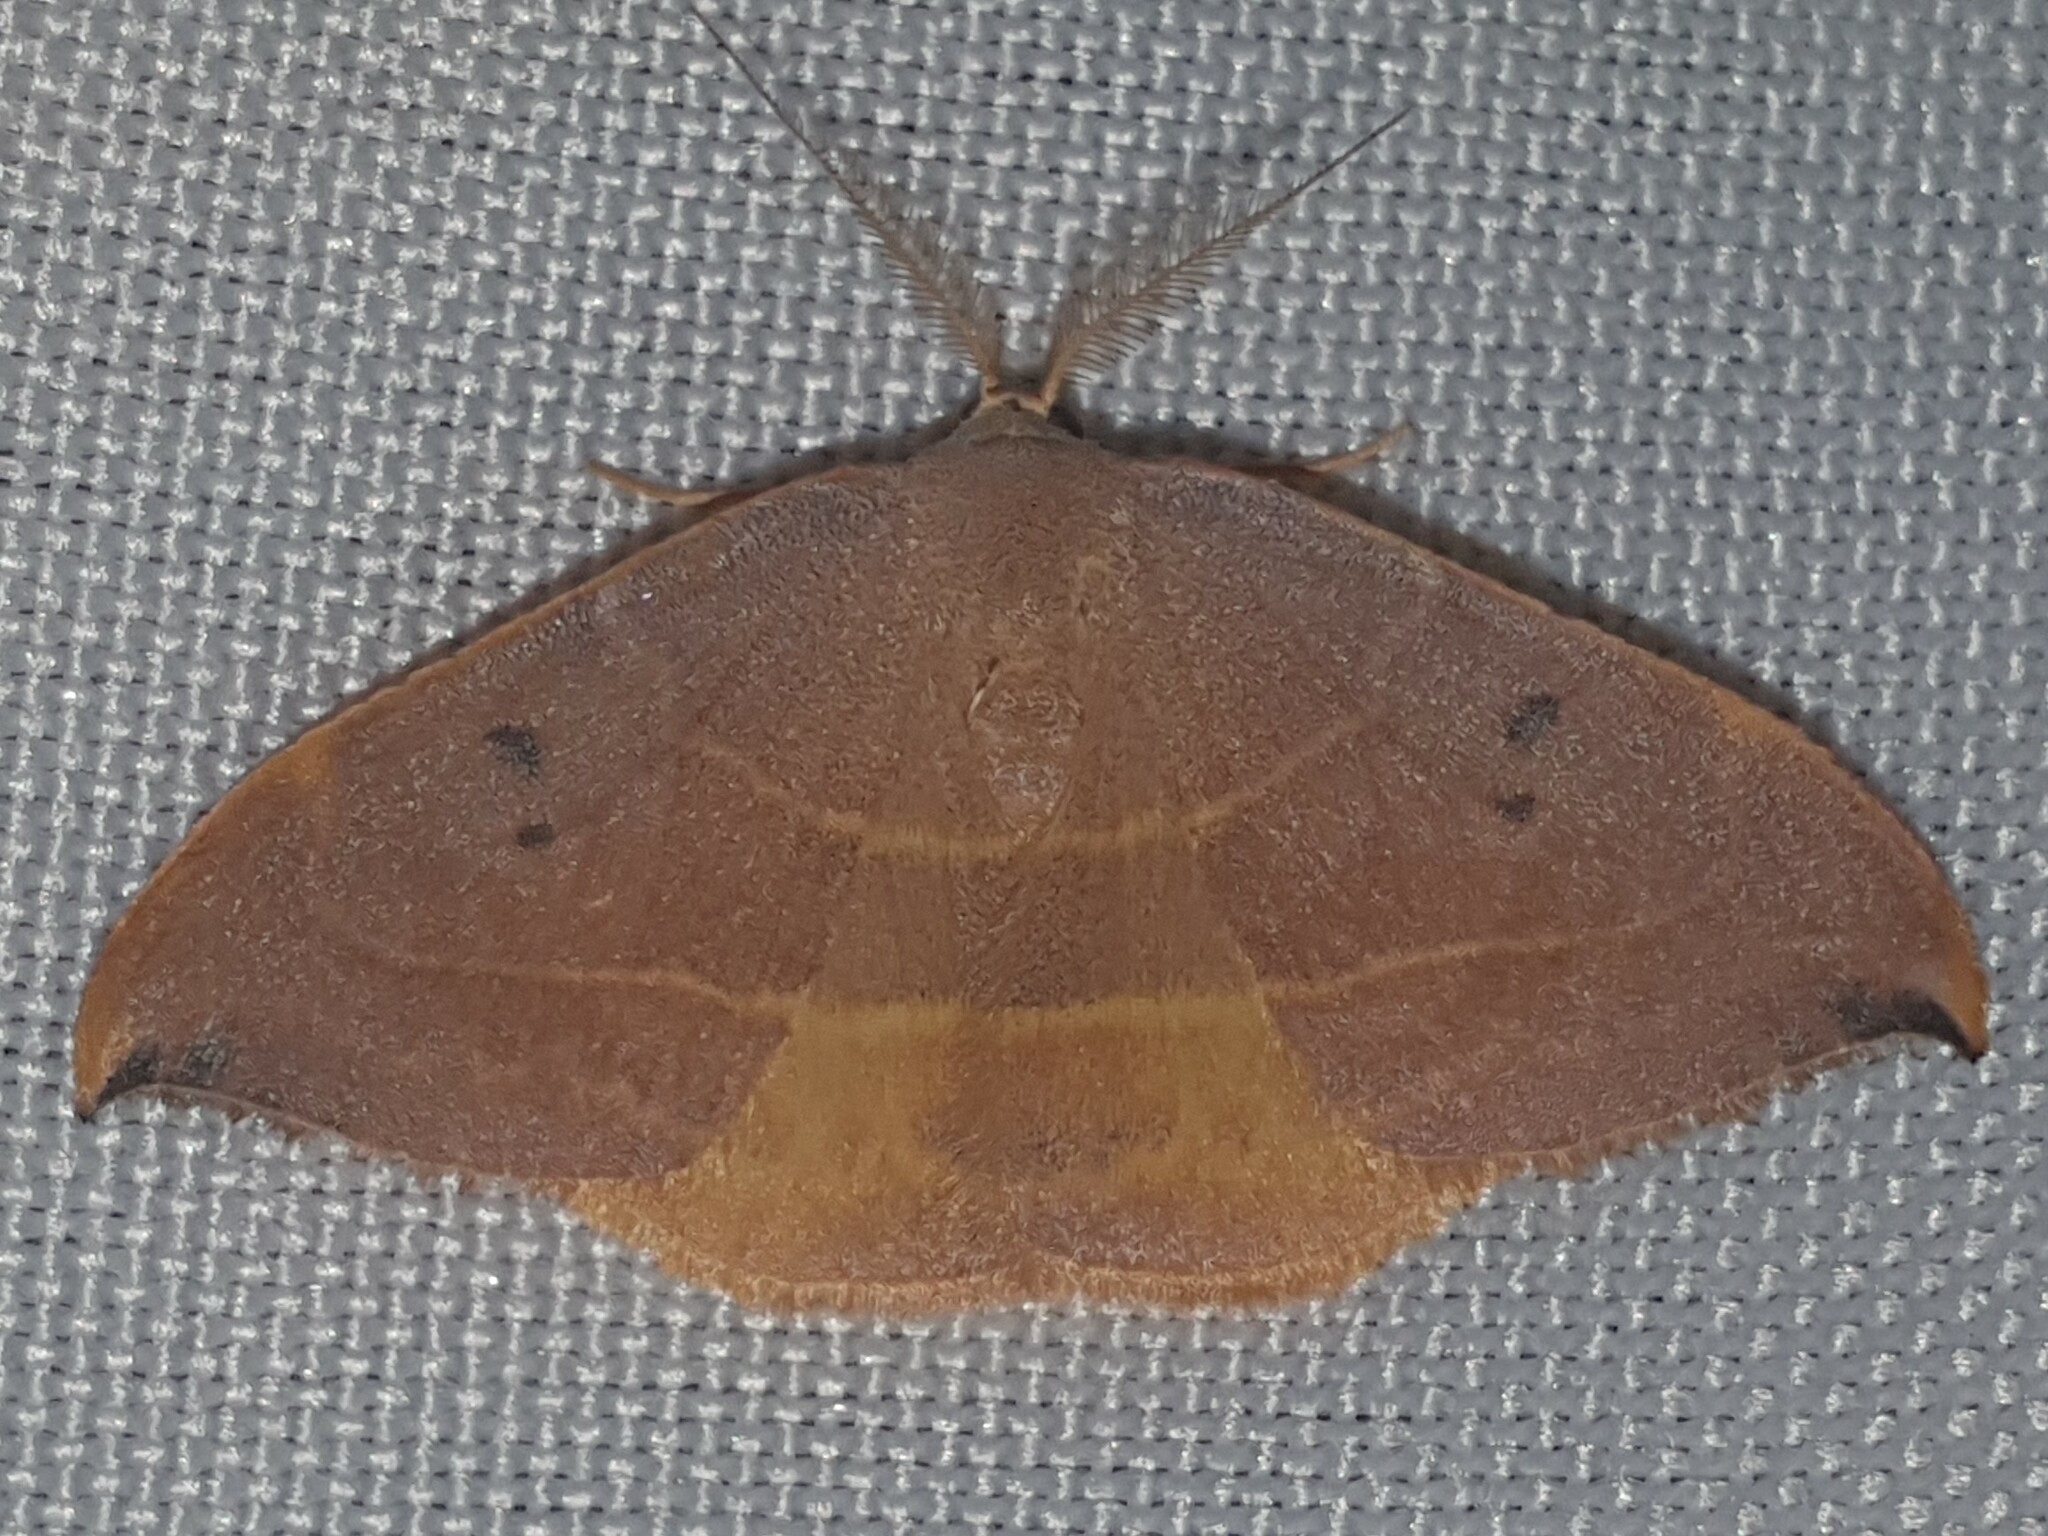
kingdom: Animalia
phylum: Arthropoda
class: Insecta
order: Lepidoptera
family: Drepanidae
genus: Watsonalla
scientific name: Watsonalla binaria
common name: Oak hook-tip
